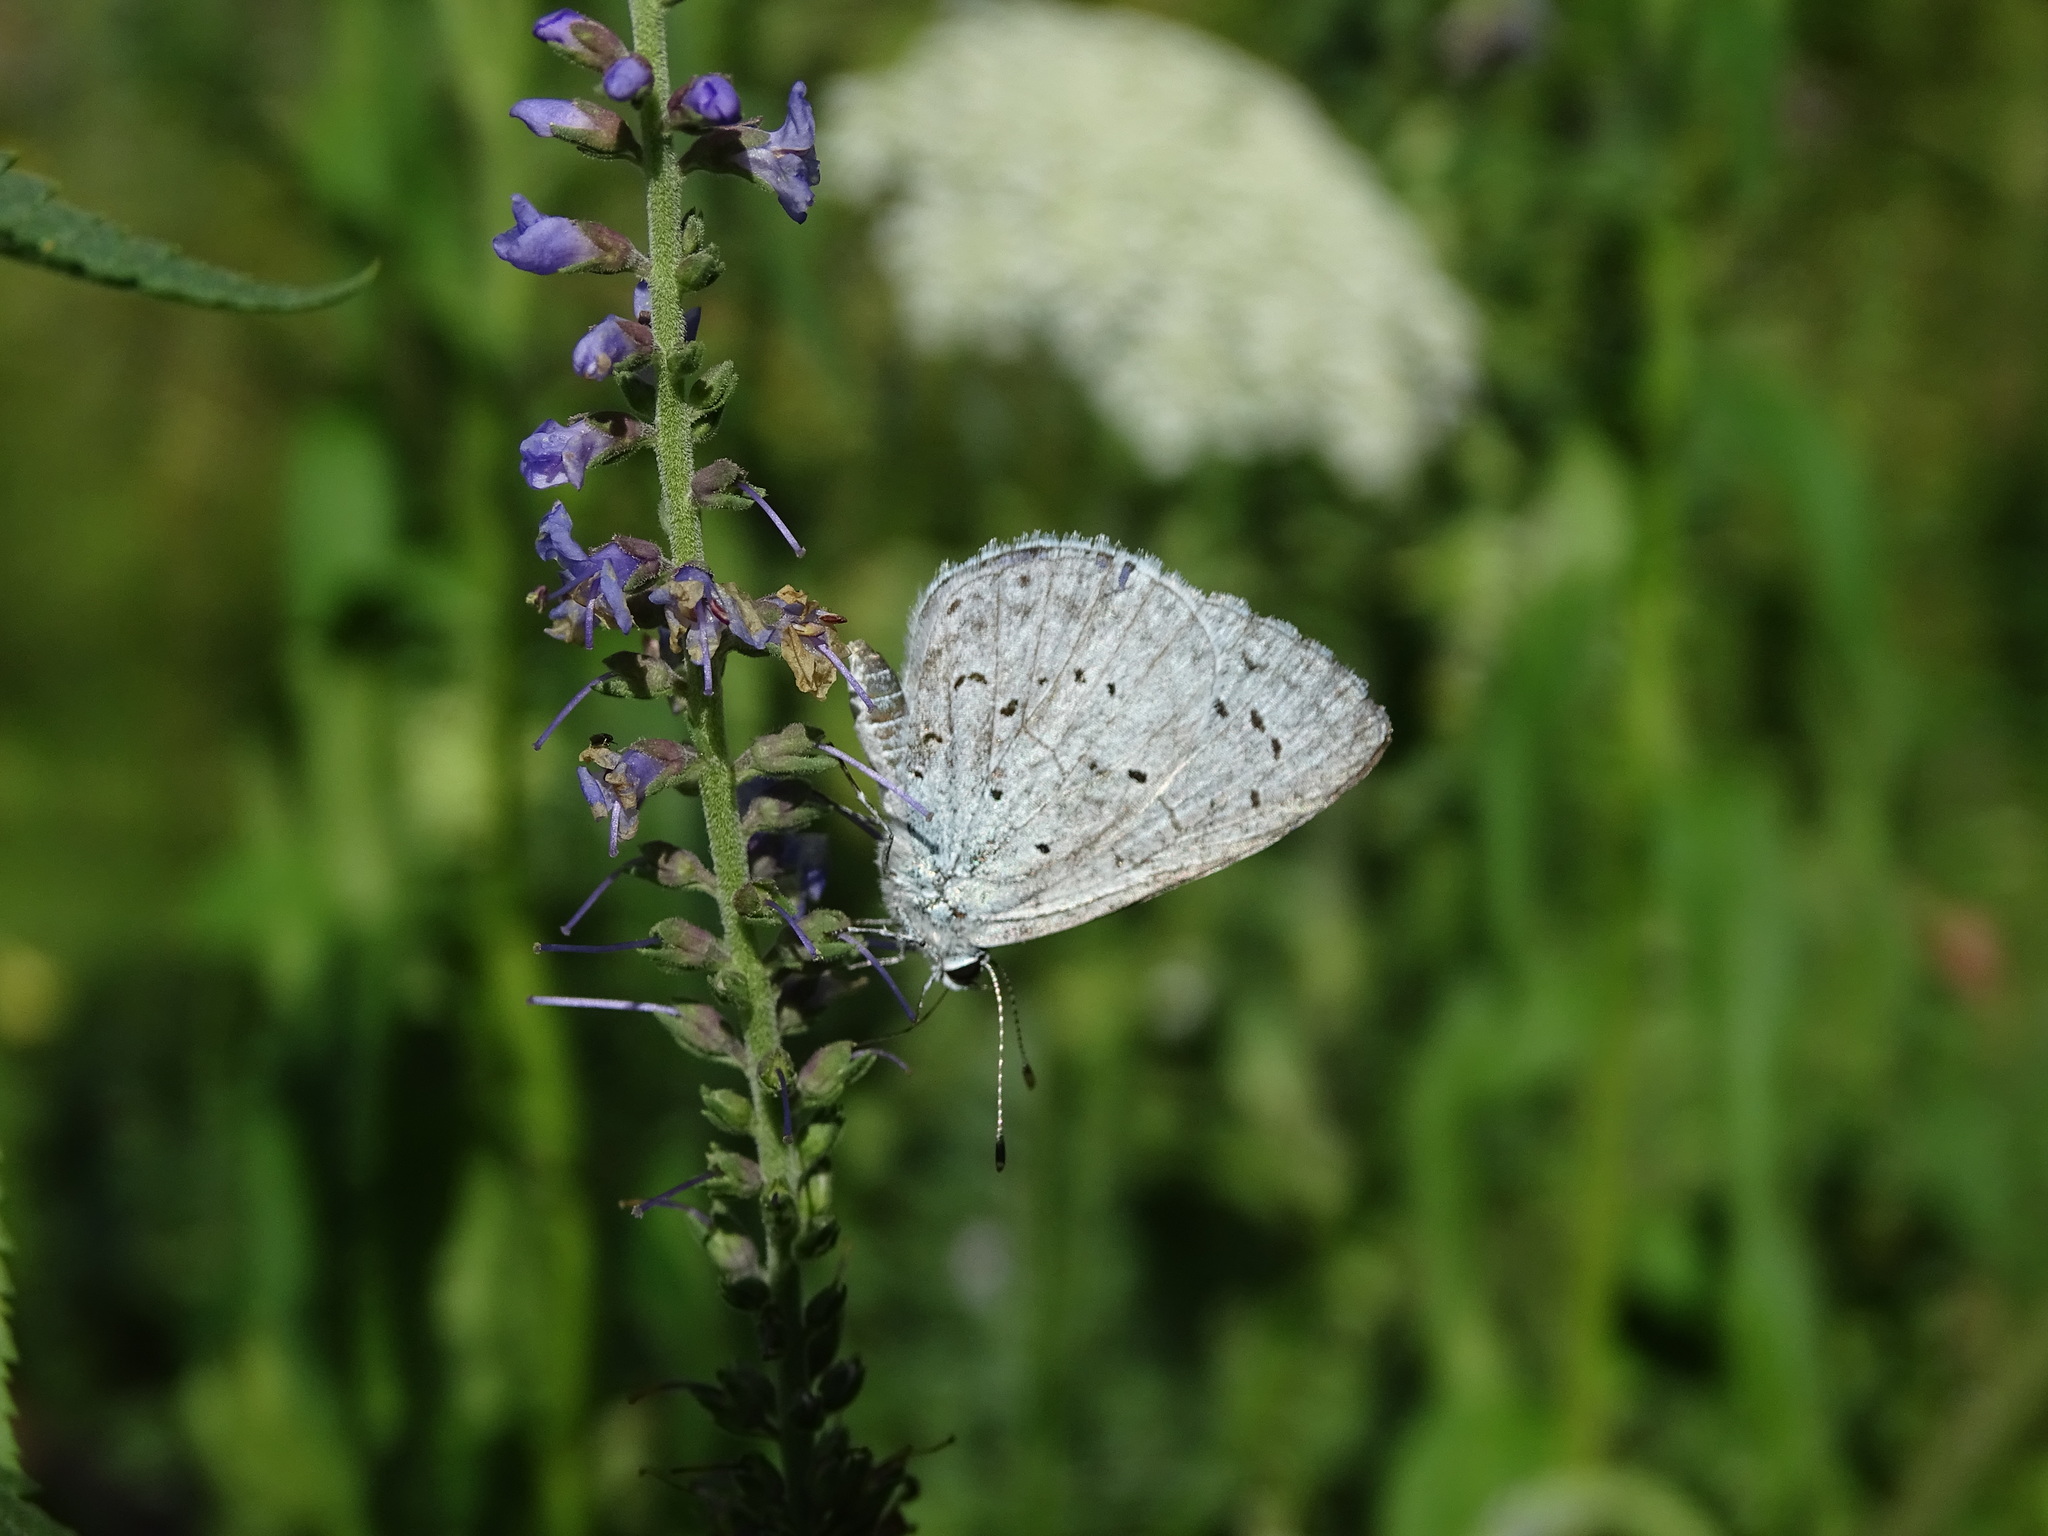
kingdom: Animalia
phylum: Arthropoda
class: Insecta
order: Lepidoptera
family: Lycaenidae
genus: Celastrina
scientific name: Celastrina argiolus
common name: Holly blue
